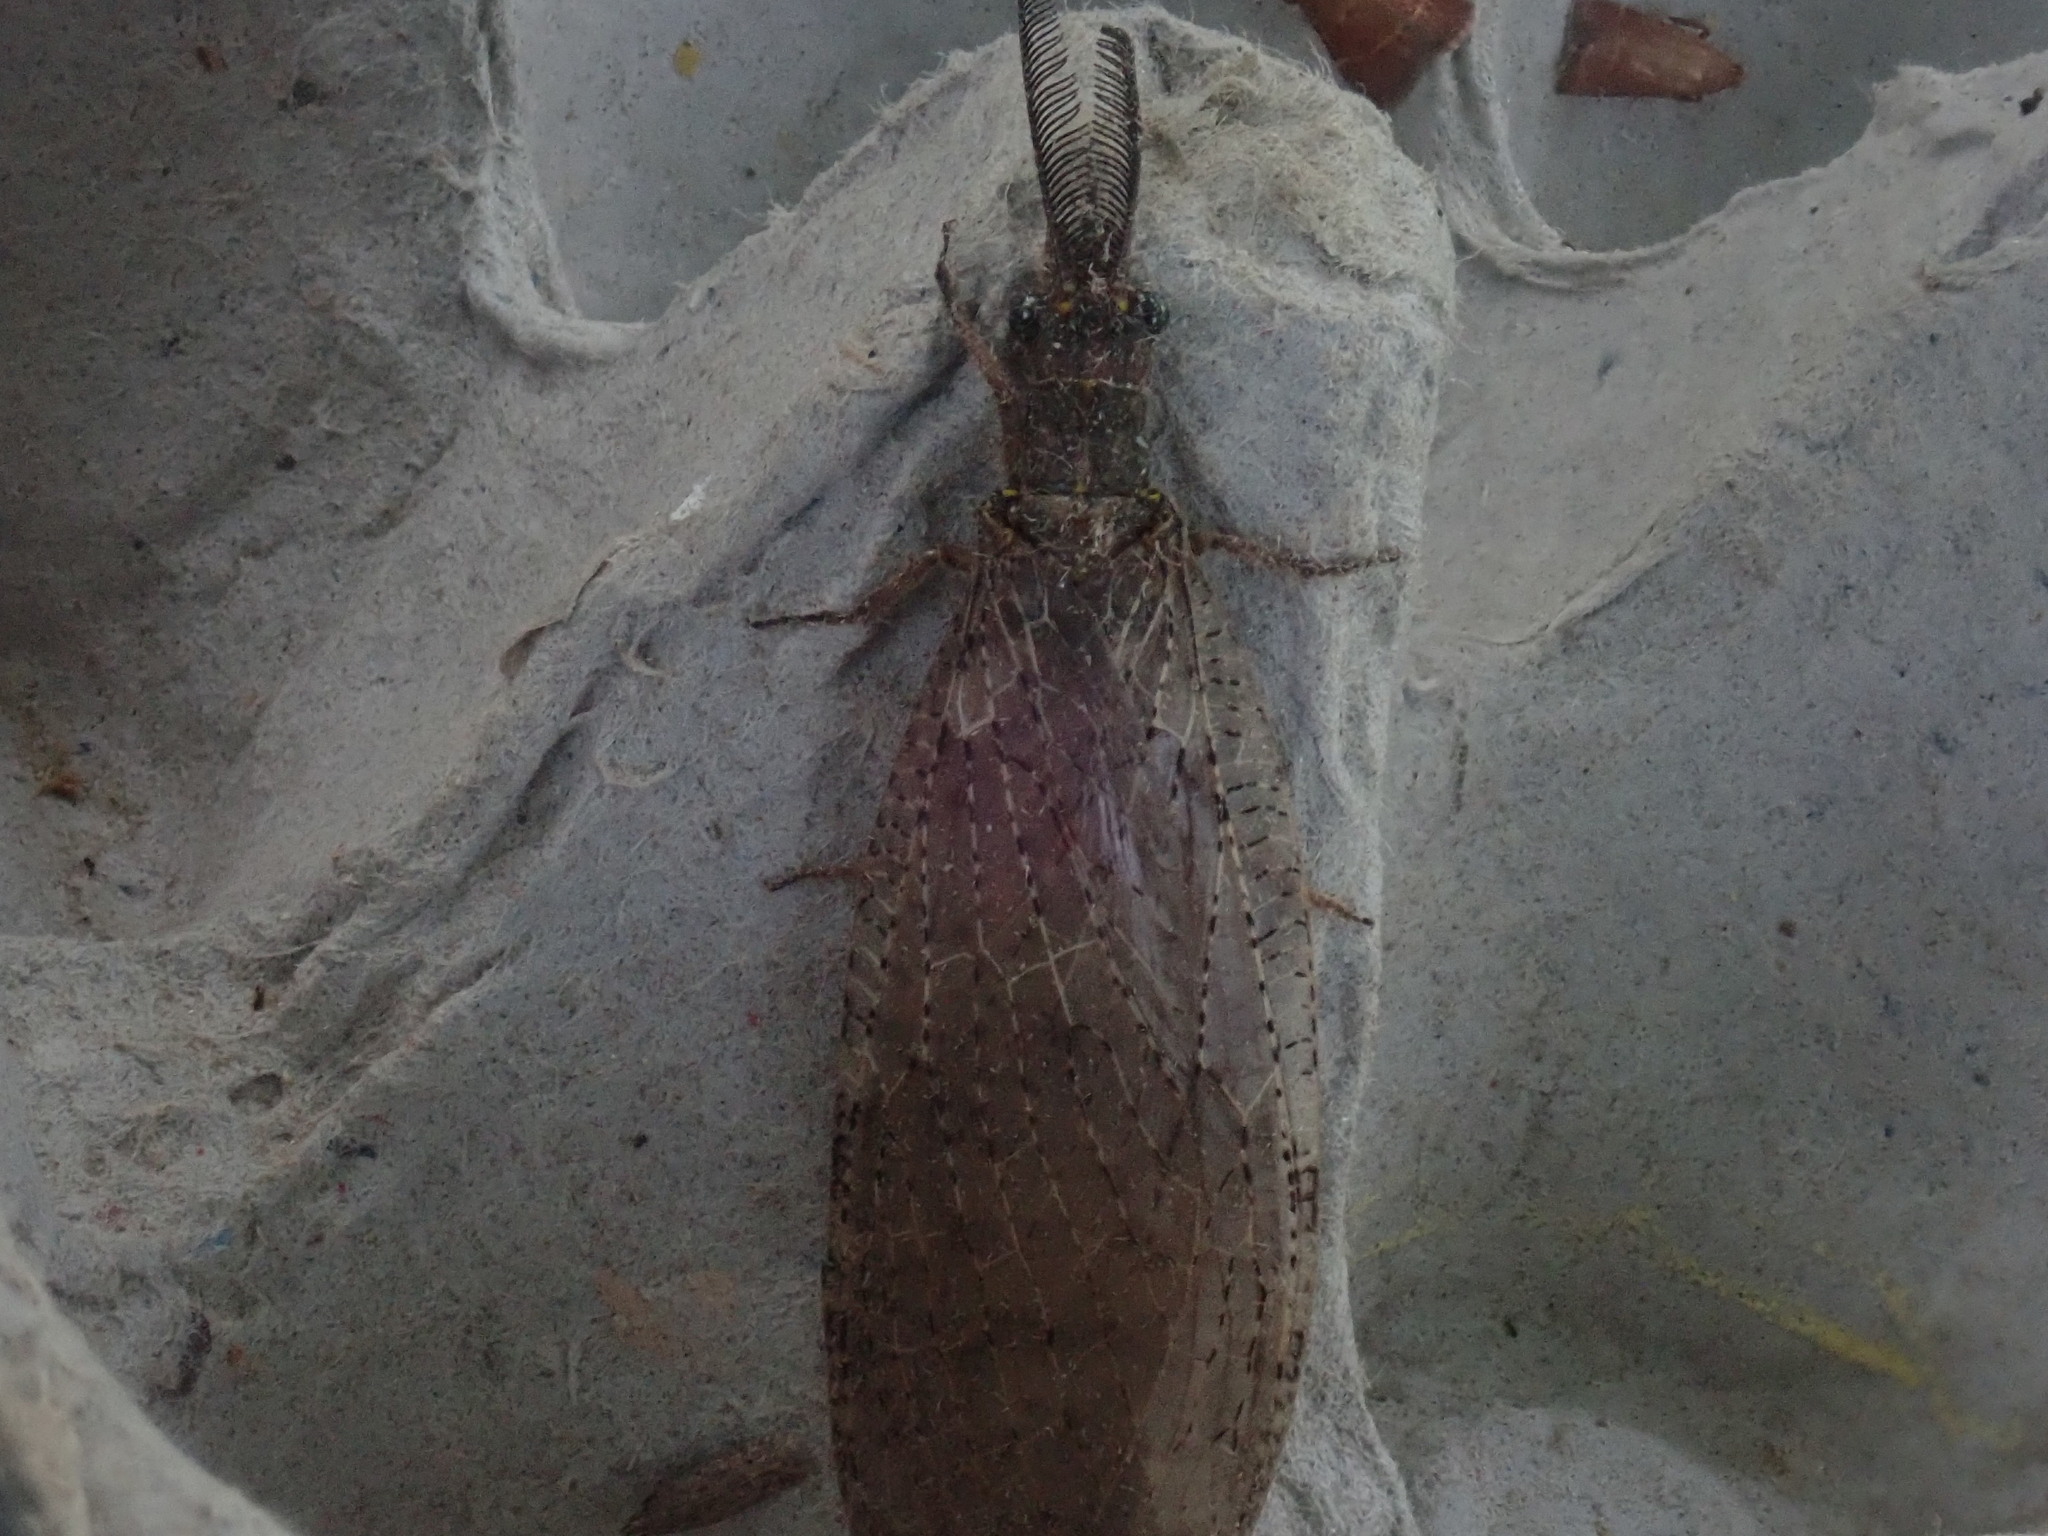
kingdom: Animalia
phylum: Arthropoda
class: Insecta
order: Megaloptera
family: Corydalidae
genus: Chauliodes
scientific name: Chauliodes pectinicornis
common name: Summer fishfly
